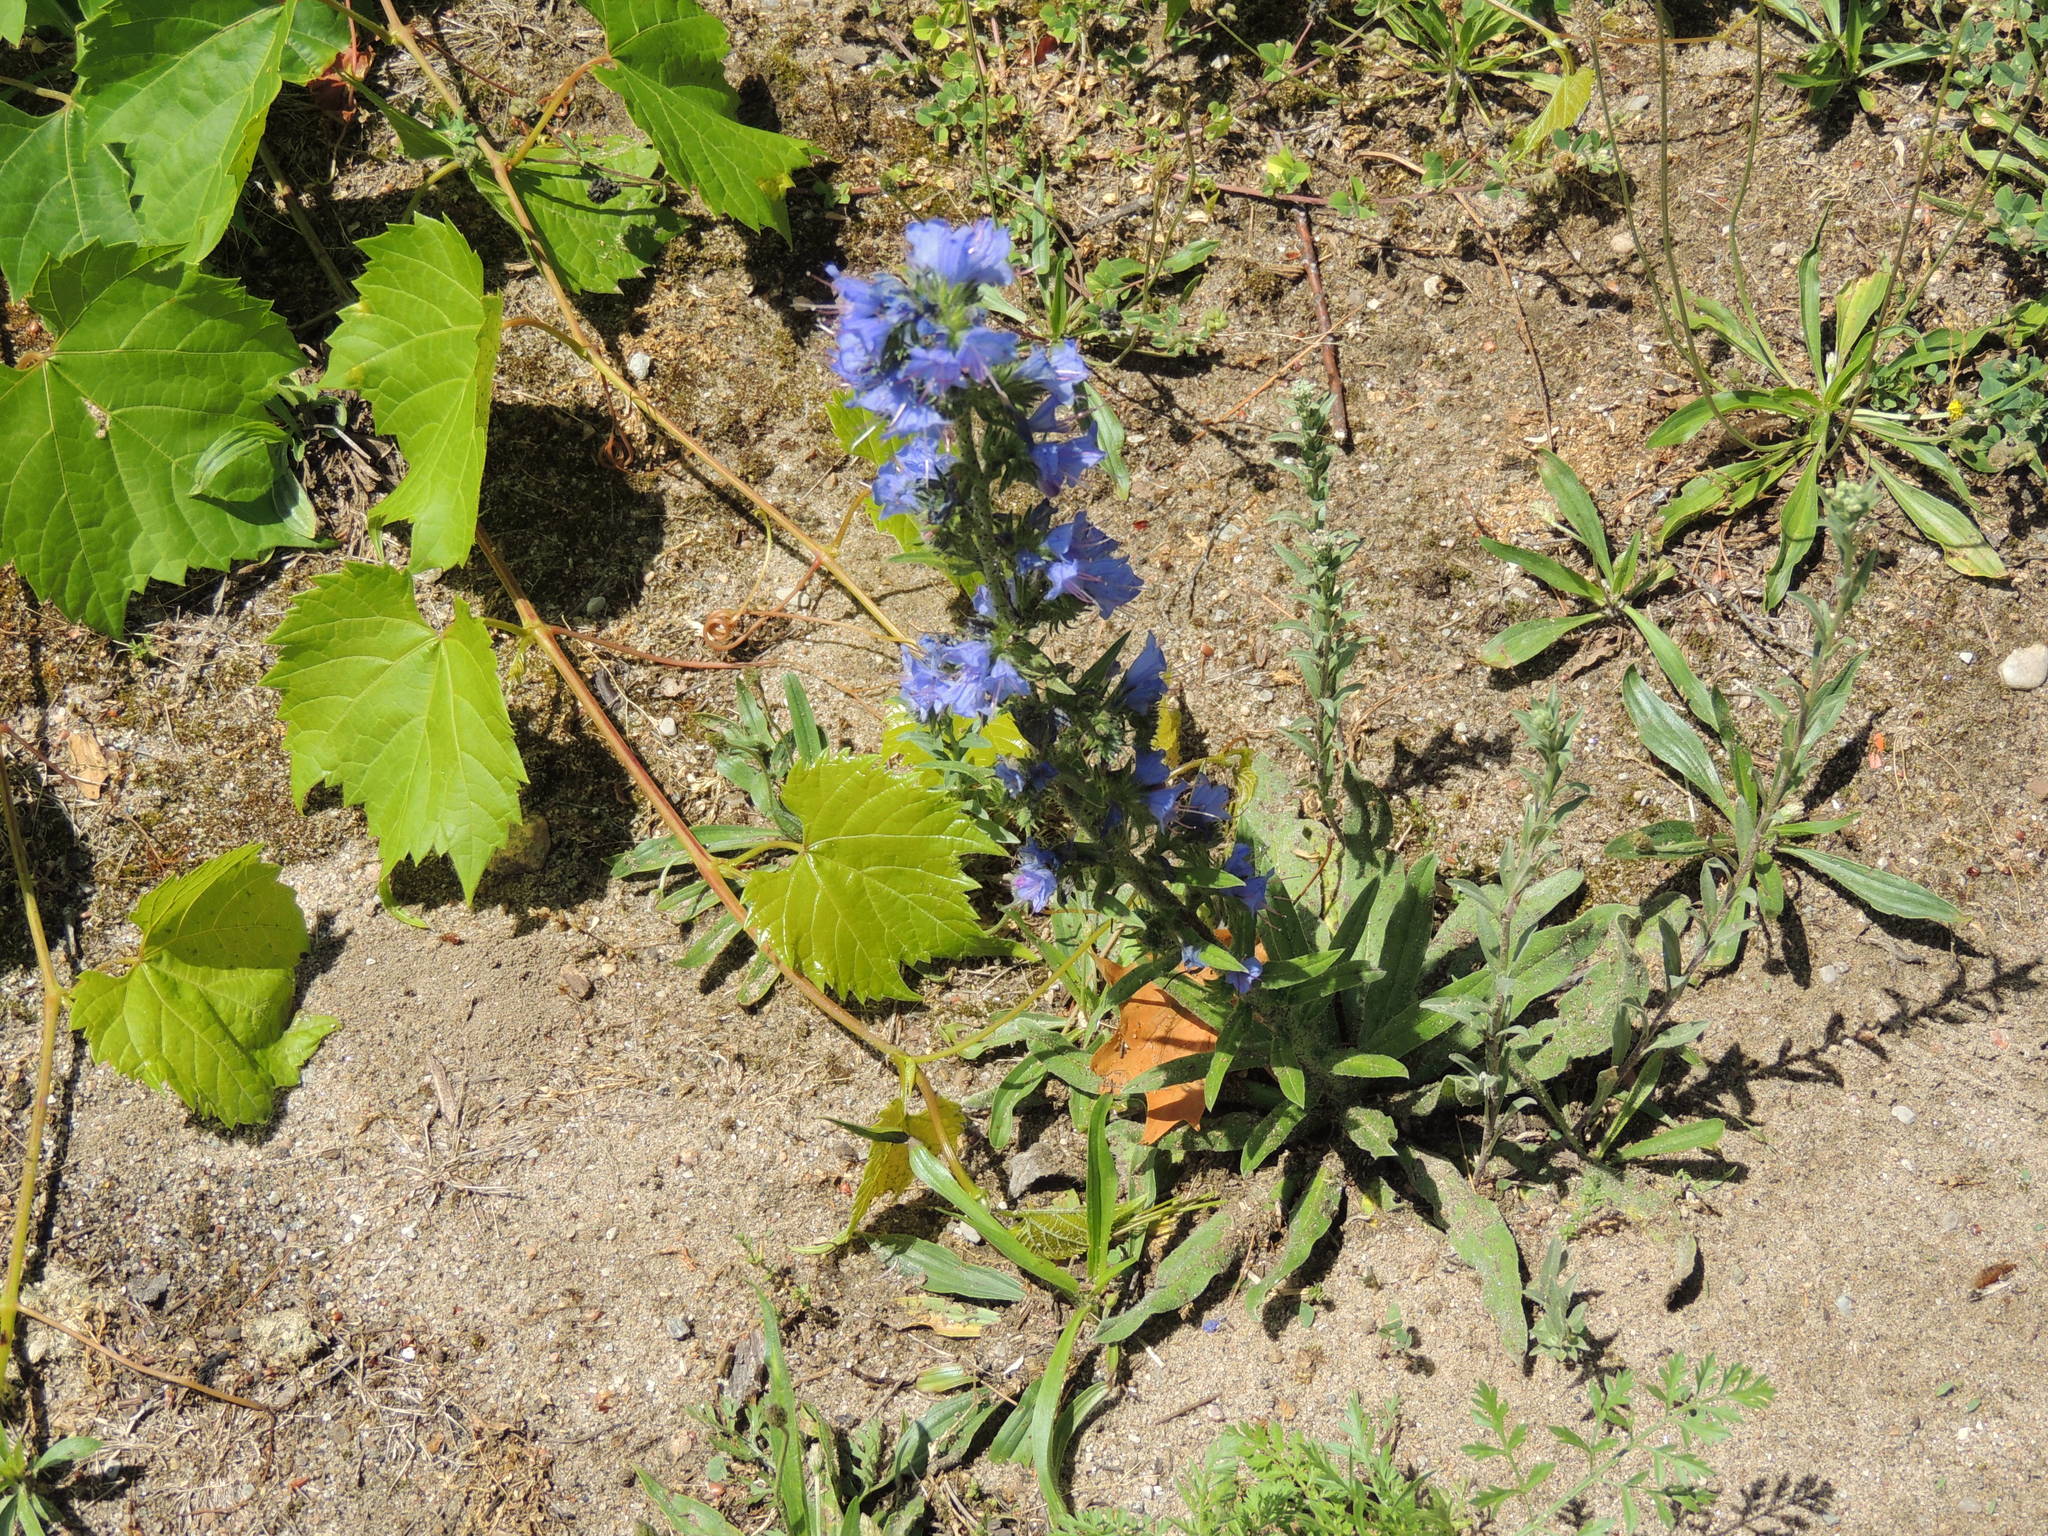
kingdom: Plantae
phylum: Tracheophyta
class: Magnoliopsida
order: Boraginales
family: Boraginaceae
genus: Echium
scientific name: Echium vulgare
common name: Common viper's bugloss
